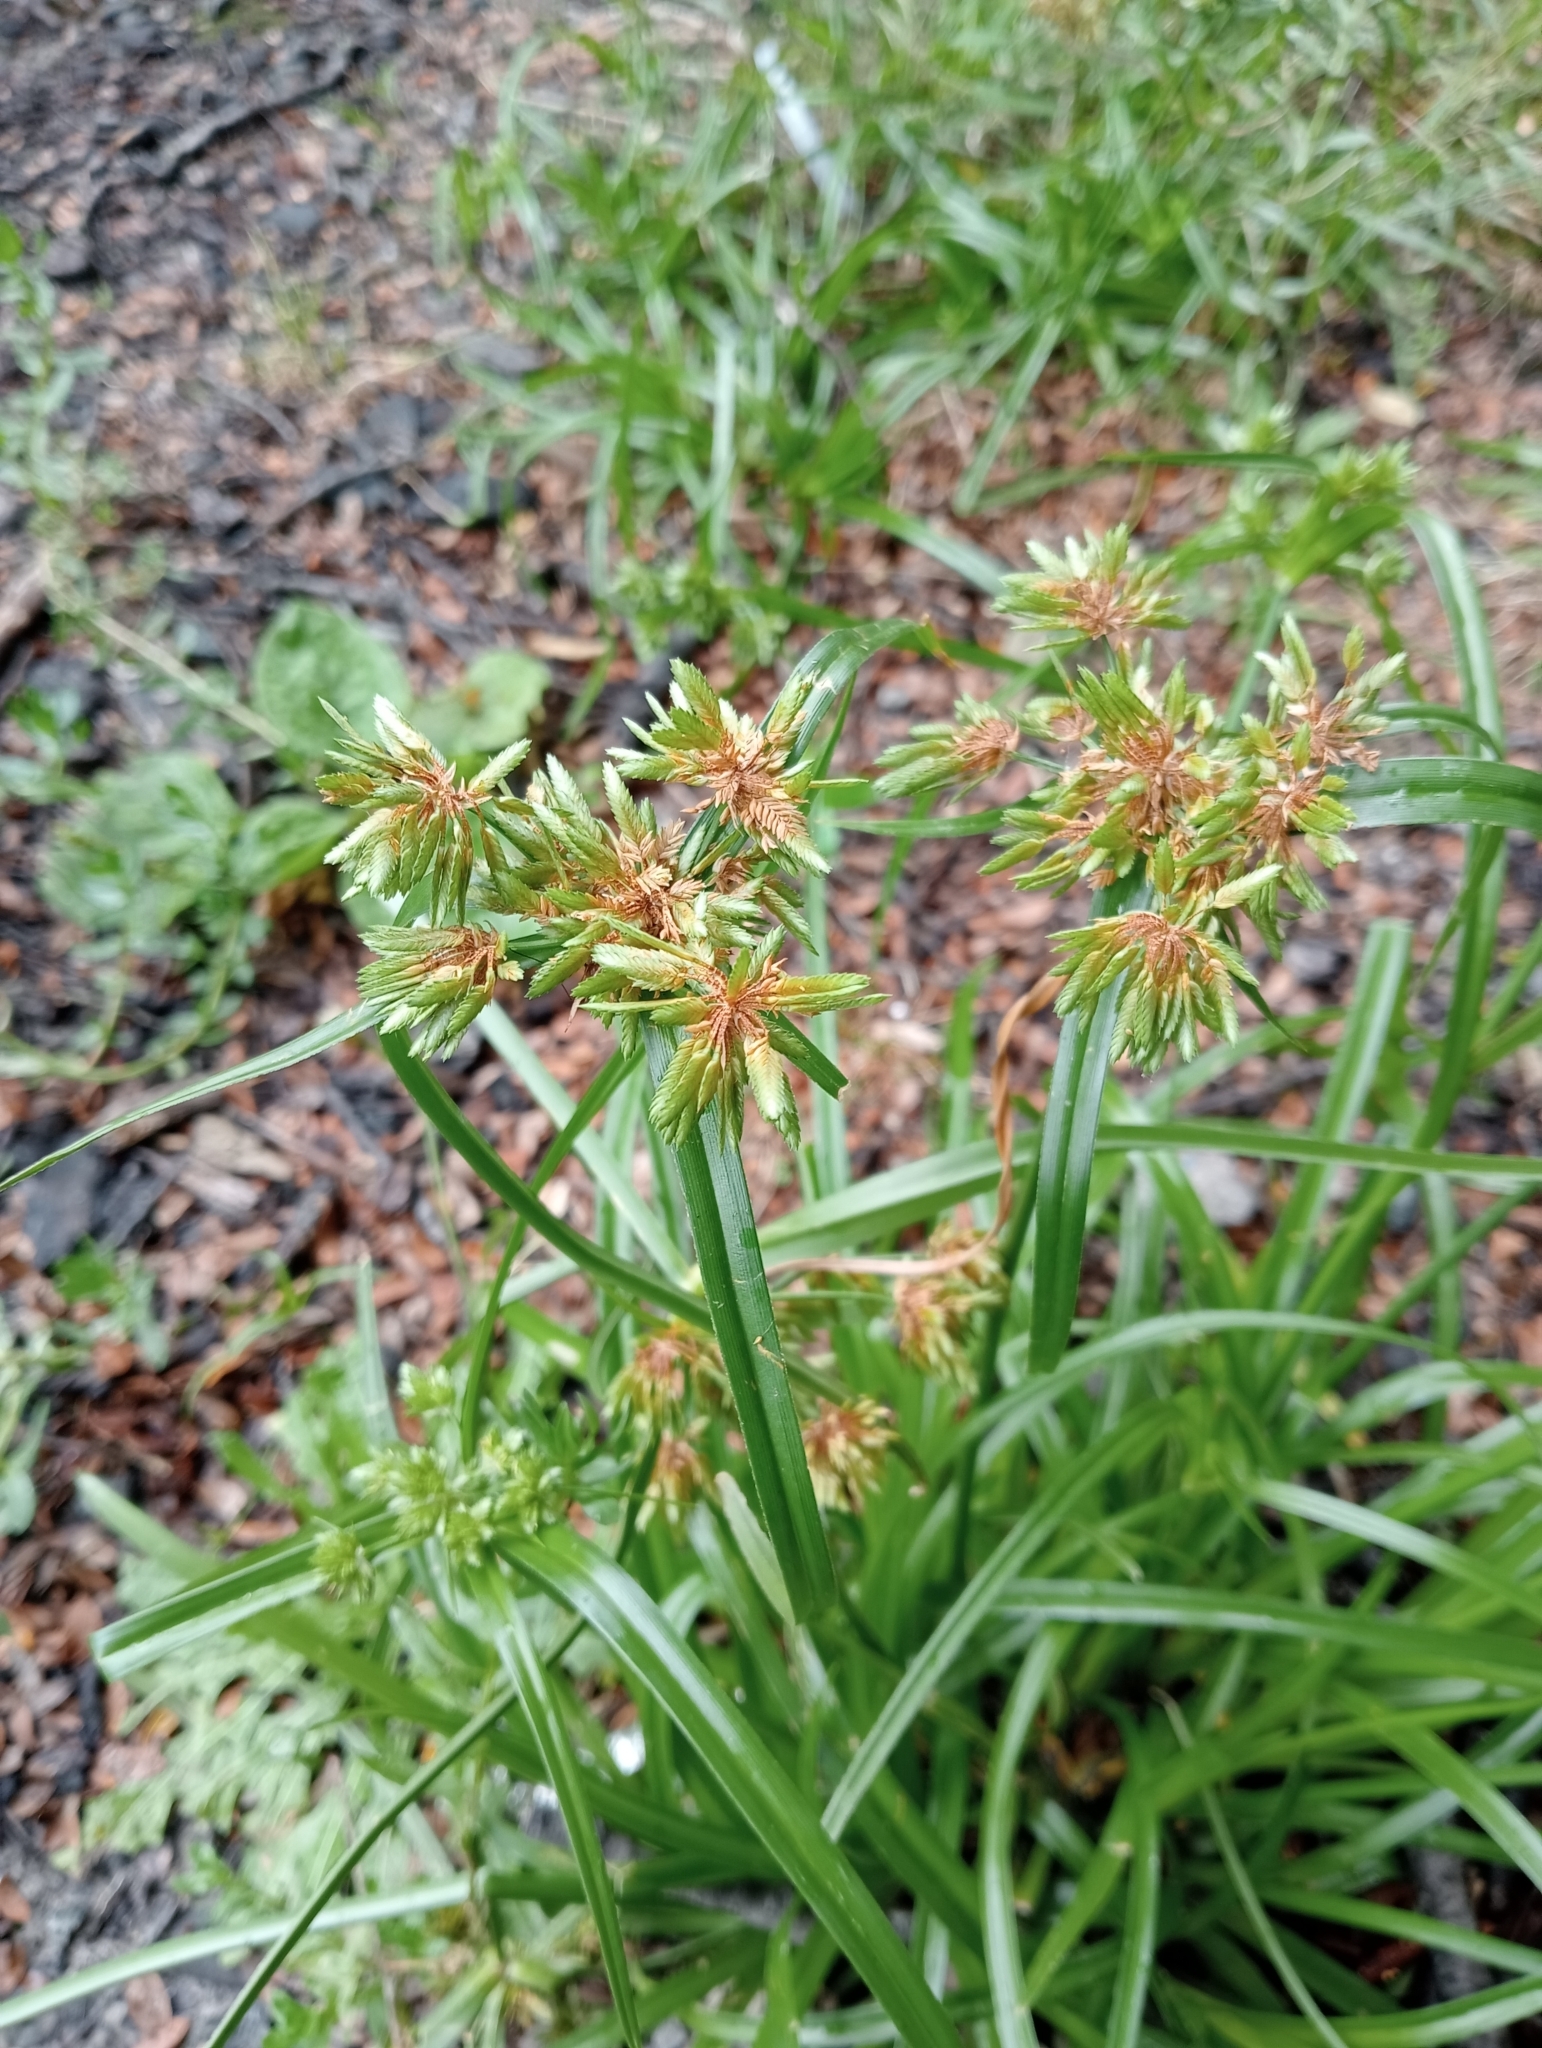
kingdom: Plantae
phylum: Tracheophyta
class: Liliopsida
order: Poales
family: Cyperaceae
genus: Cyperus
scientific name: Cyperus eragrostis
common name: Tall flatsedge
